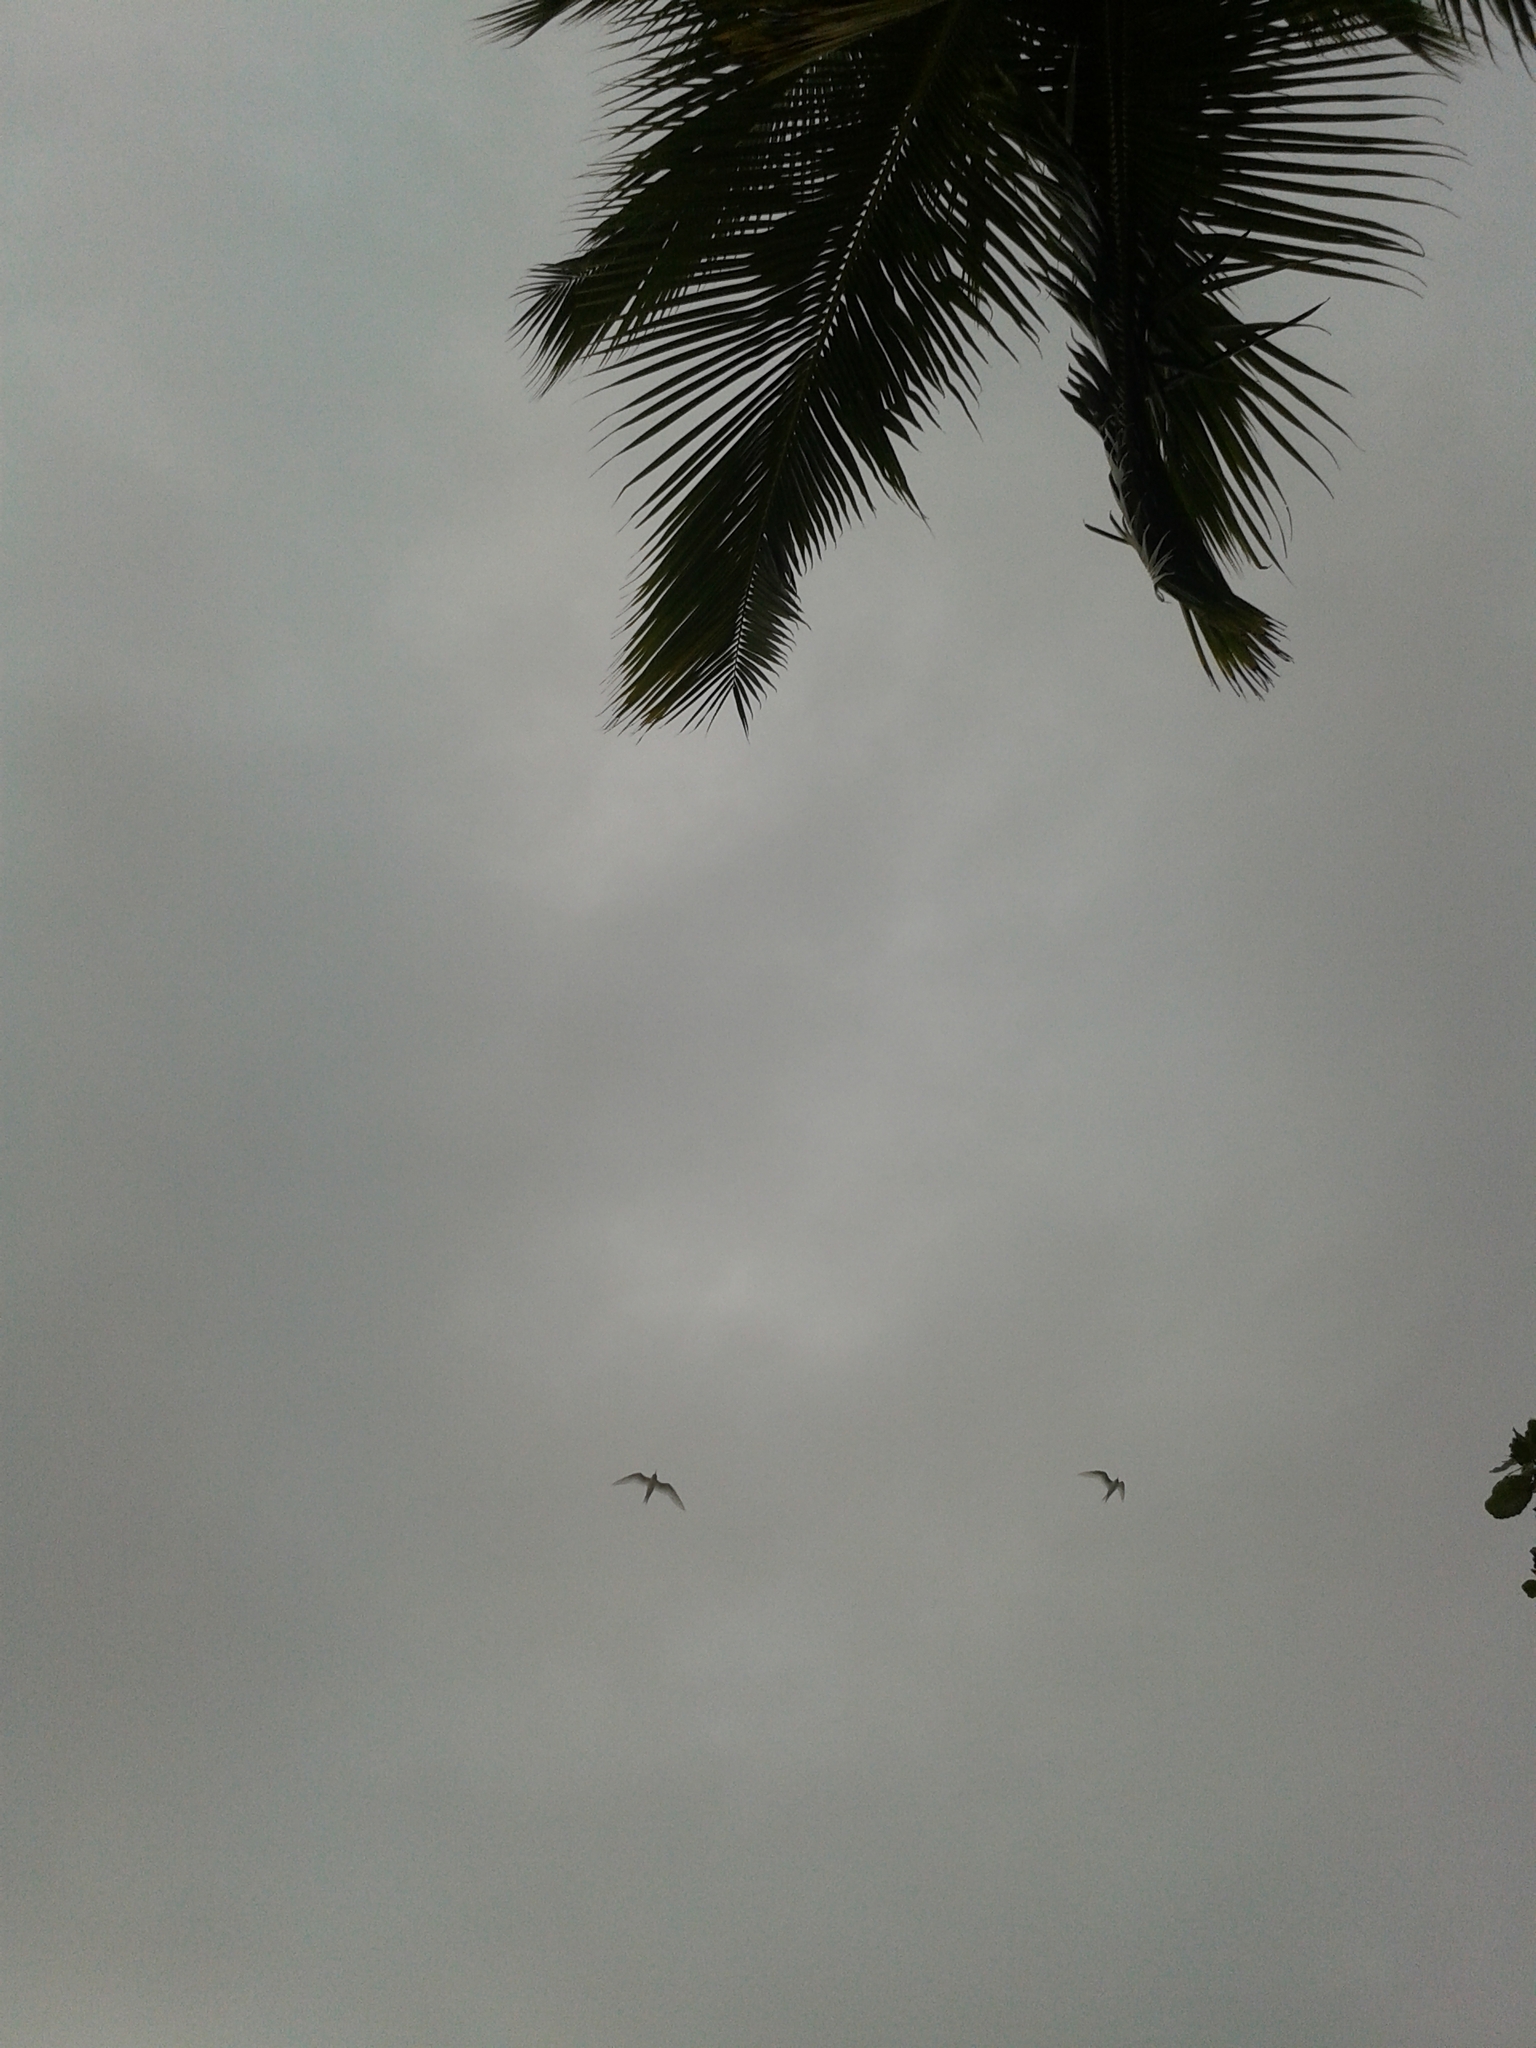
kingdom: Animalia
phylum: Chordata
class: Aves
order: Charadriiformes
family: Laridae
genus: Gygis
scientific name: Gygis alba
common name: White tern
